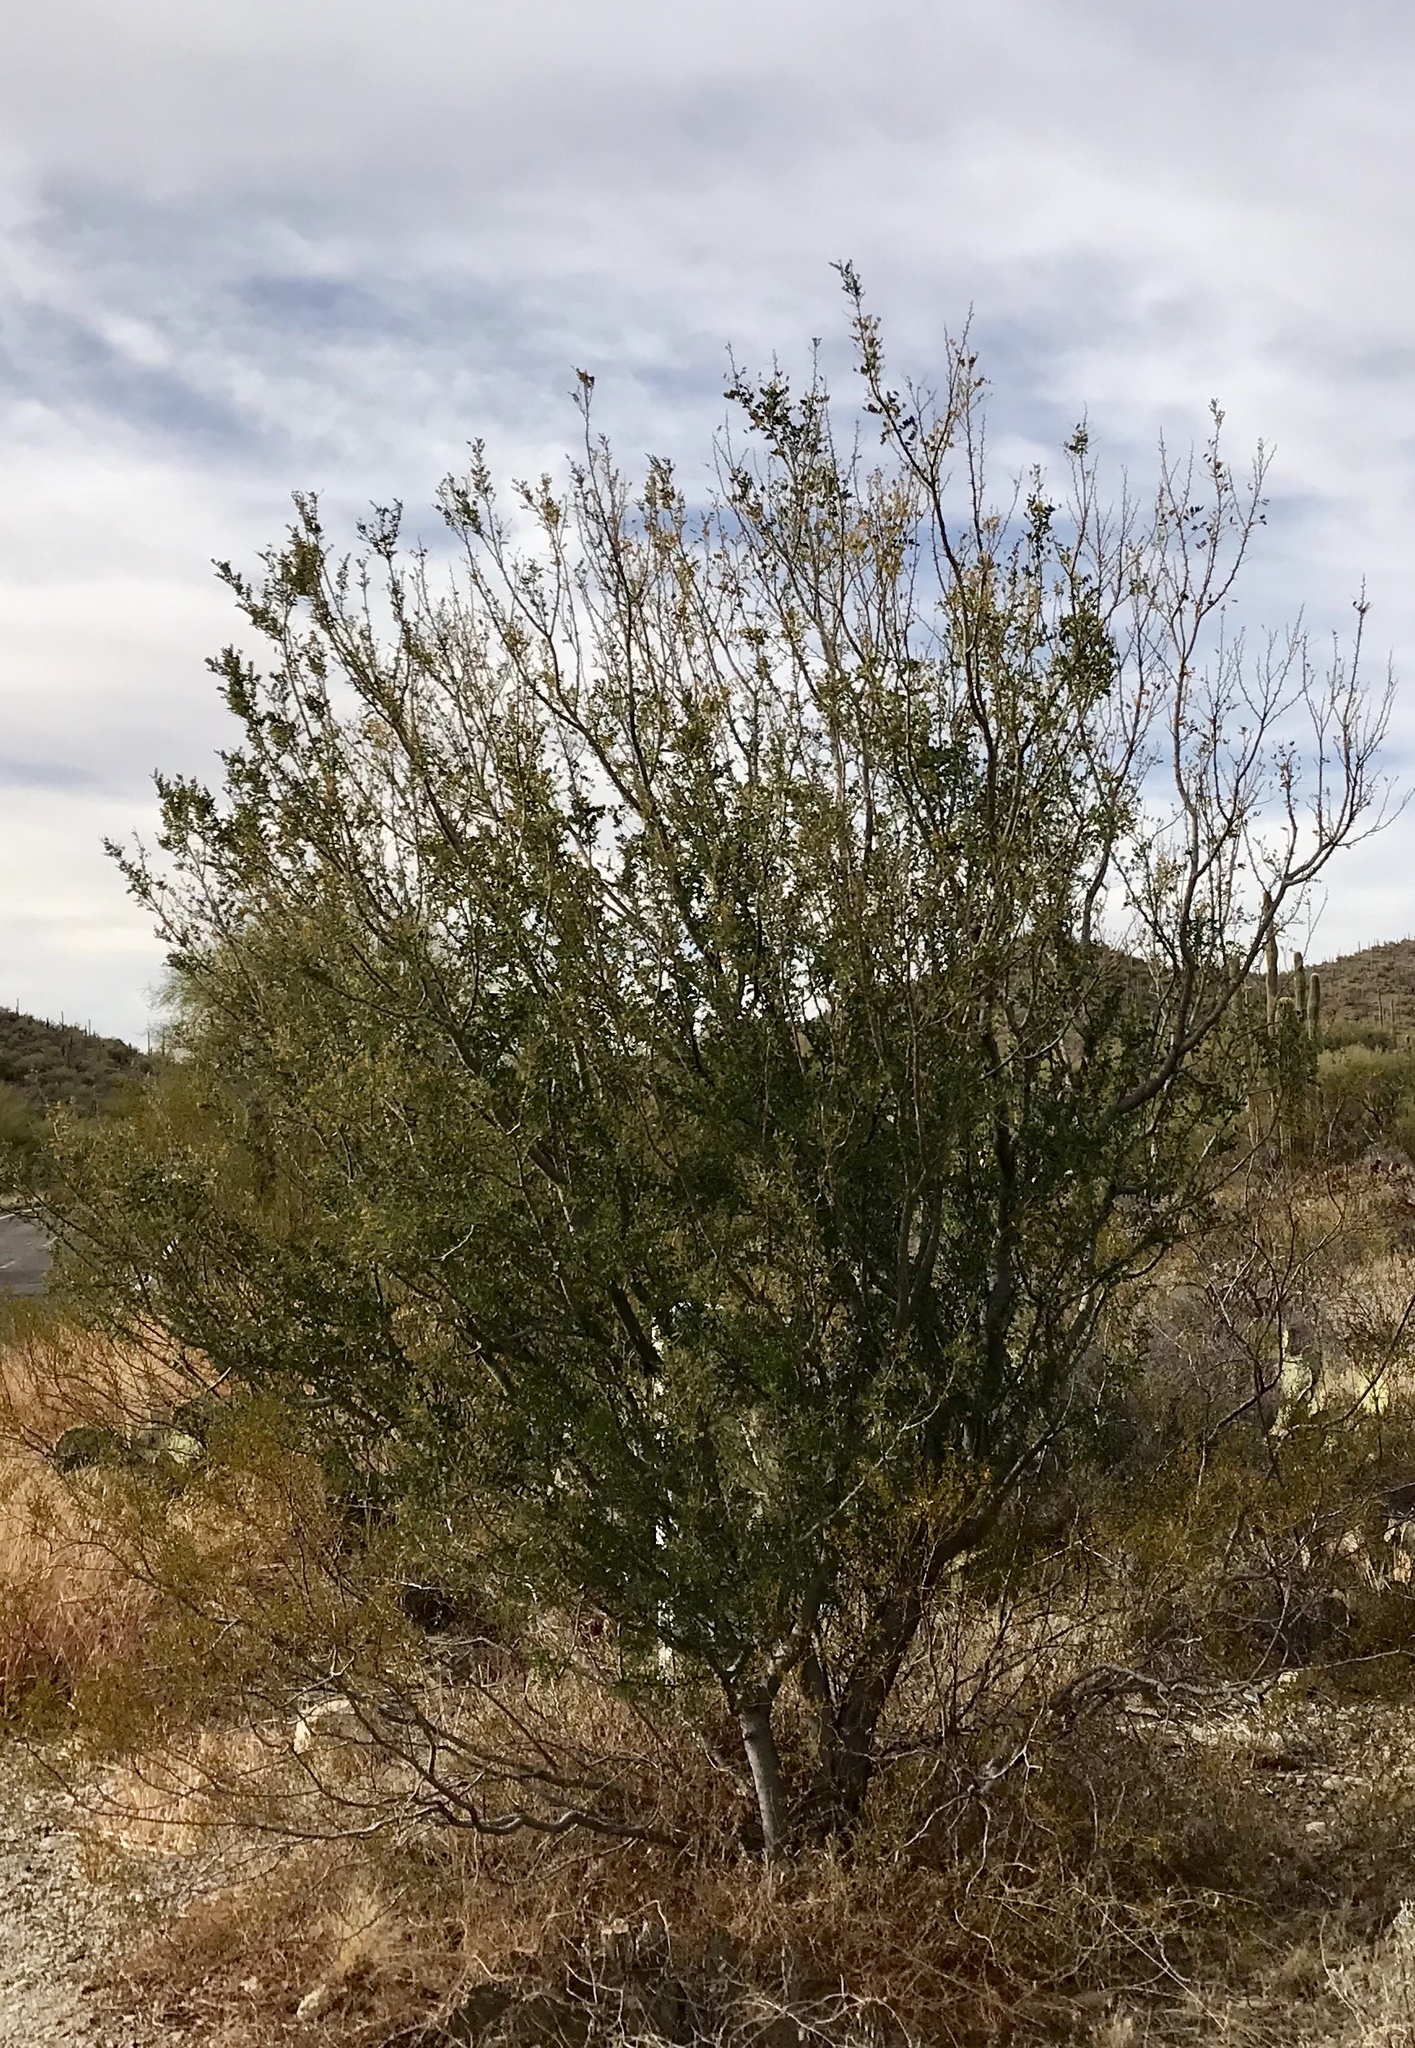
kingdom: Plantae
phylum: Tracheophyta
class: Magnoliopsida
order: Fabales
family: Fabaceae
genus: Olneya
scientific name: Olneya tesota
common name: Desert ironwood
